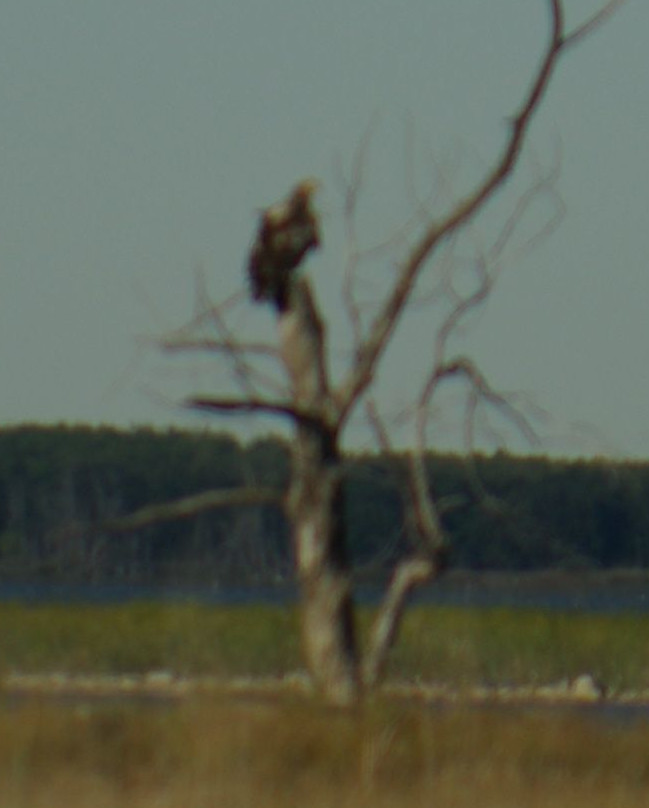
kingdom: Animalia
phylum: Chordata
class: Aves
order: Accipitriformes
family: Accipitridae
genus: Haliaeetus
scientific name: Haliaeetus leucocephalus
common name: Bald eagle
